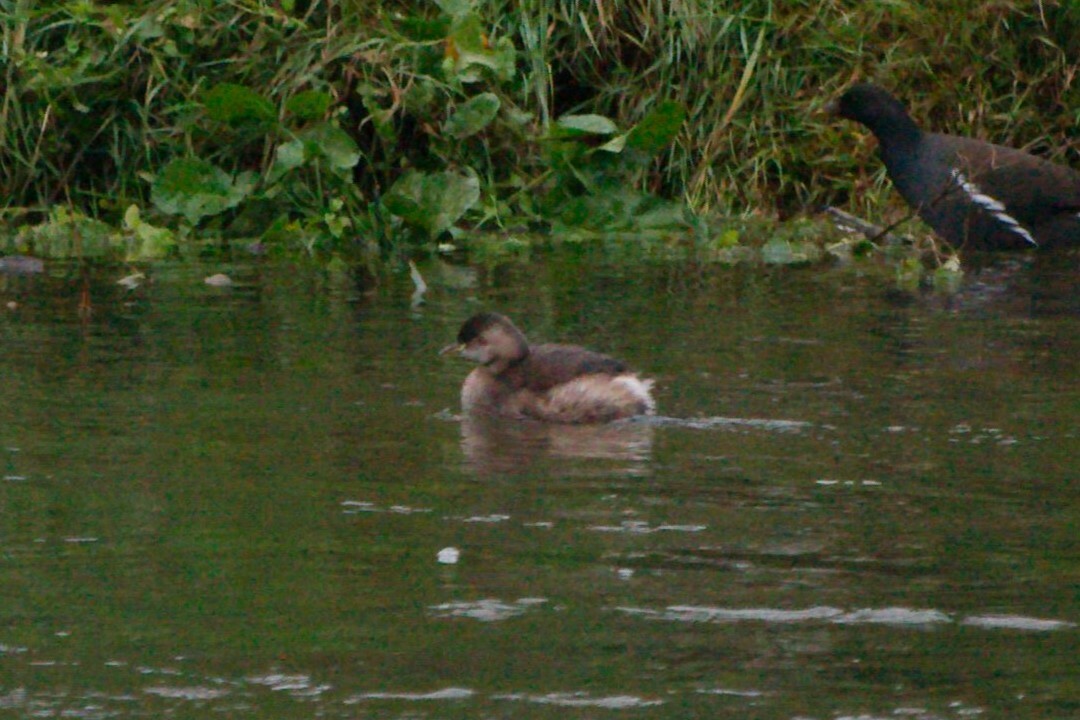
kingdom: Animalia
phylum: Chordata
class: Aves
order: Podicipediformes
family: Podicipedidae
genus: Tachybaptus
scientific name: Tachybaptus ruficollis
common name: Little grebe
